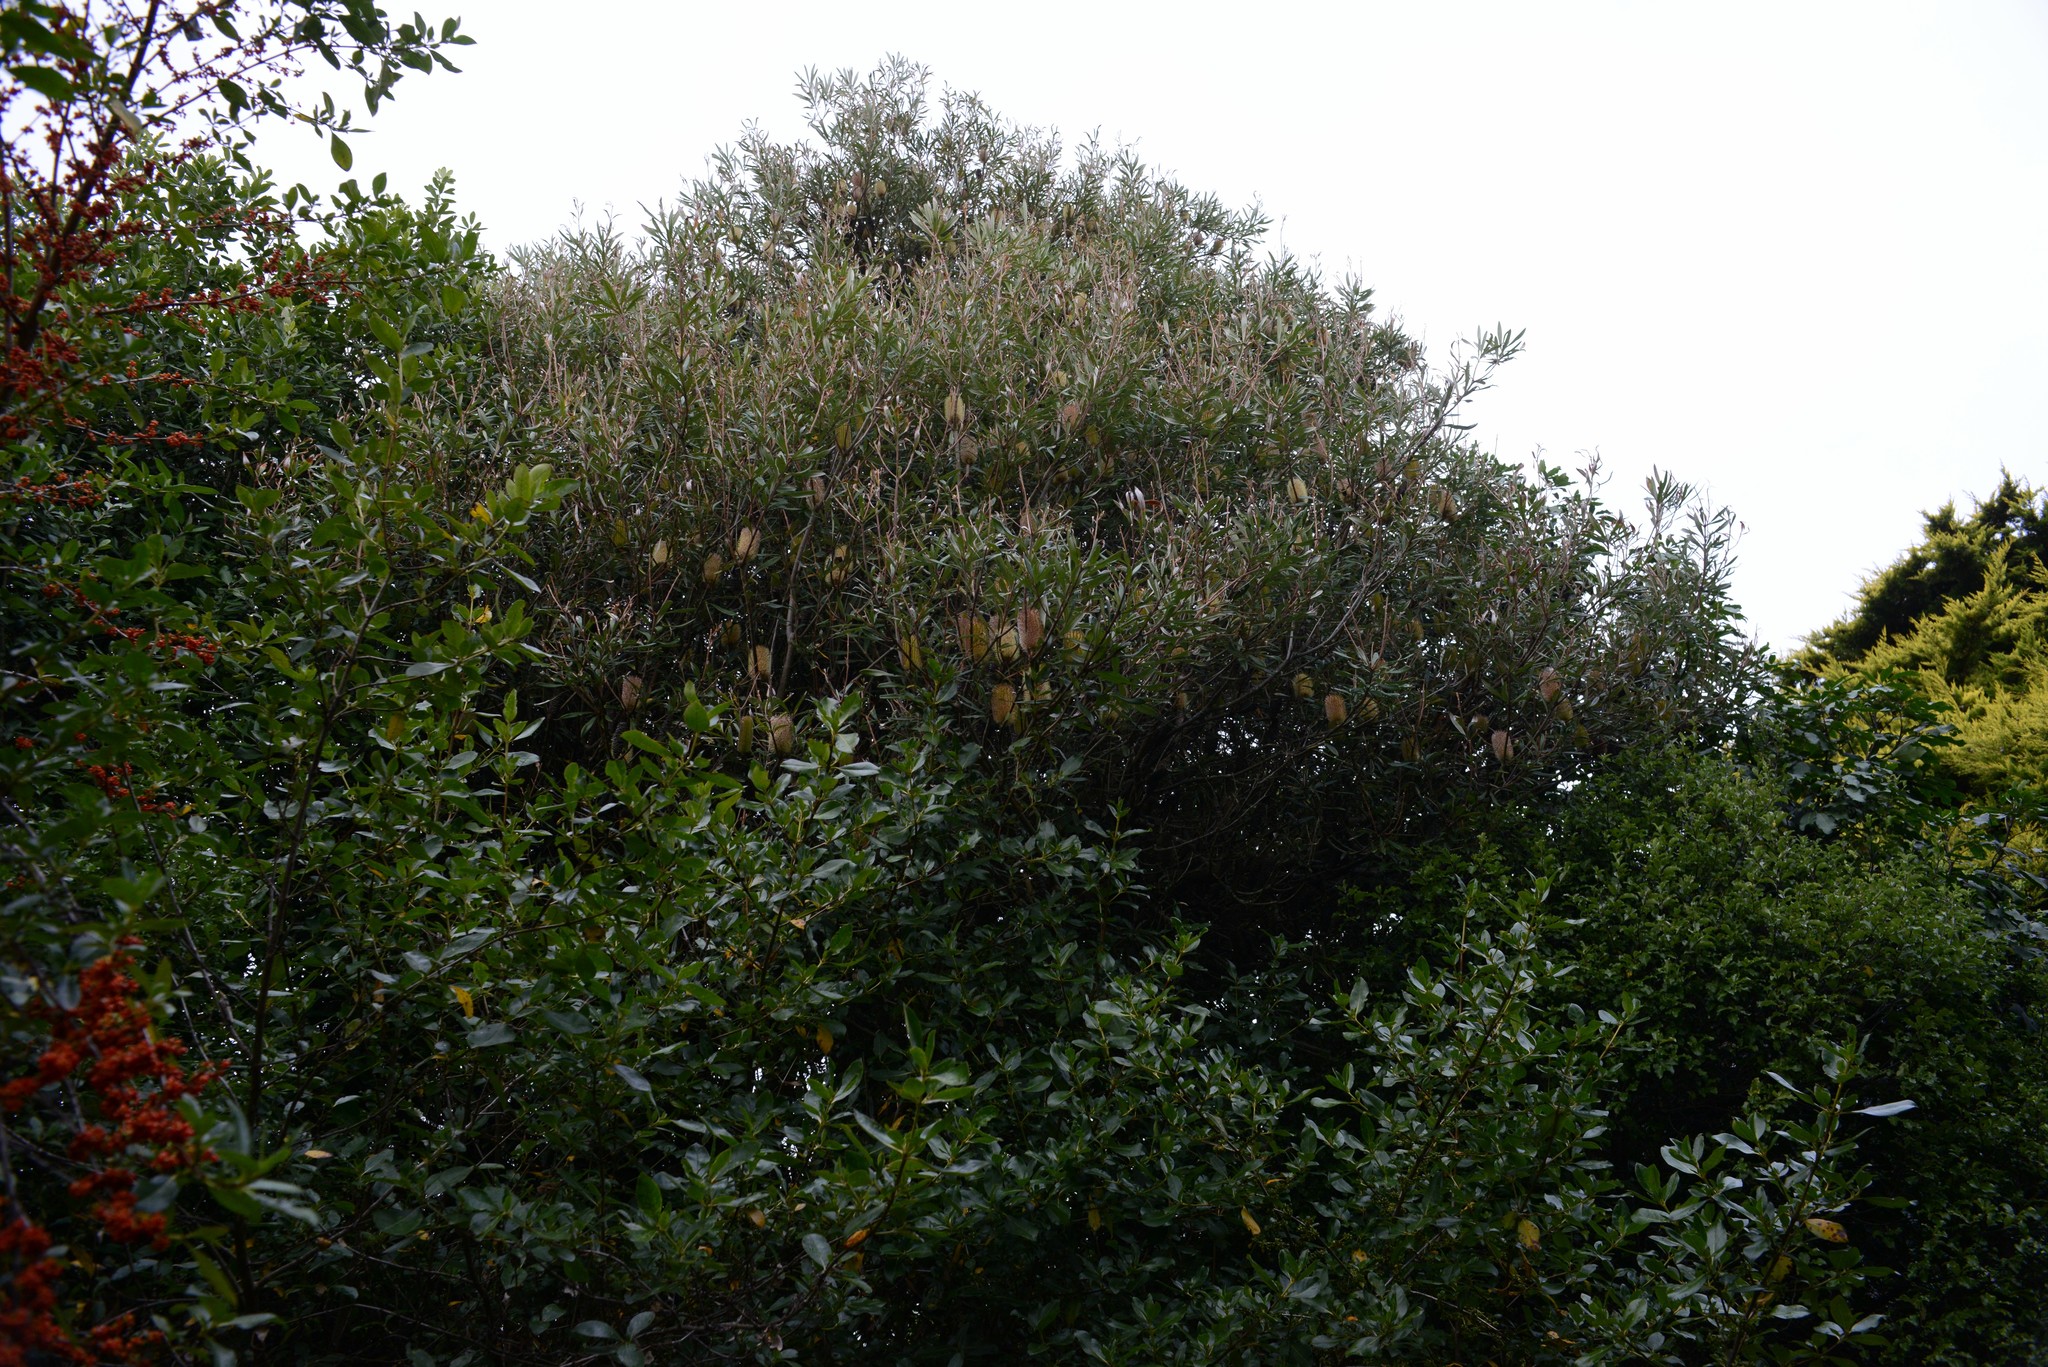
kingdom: Plantae
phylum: Tracheophyta
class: Magnoliopsida
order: Proteales
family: Proteaceae
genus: Banksia
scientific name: Banksia integrifolia
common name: White-honeysuckle
